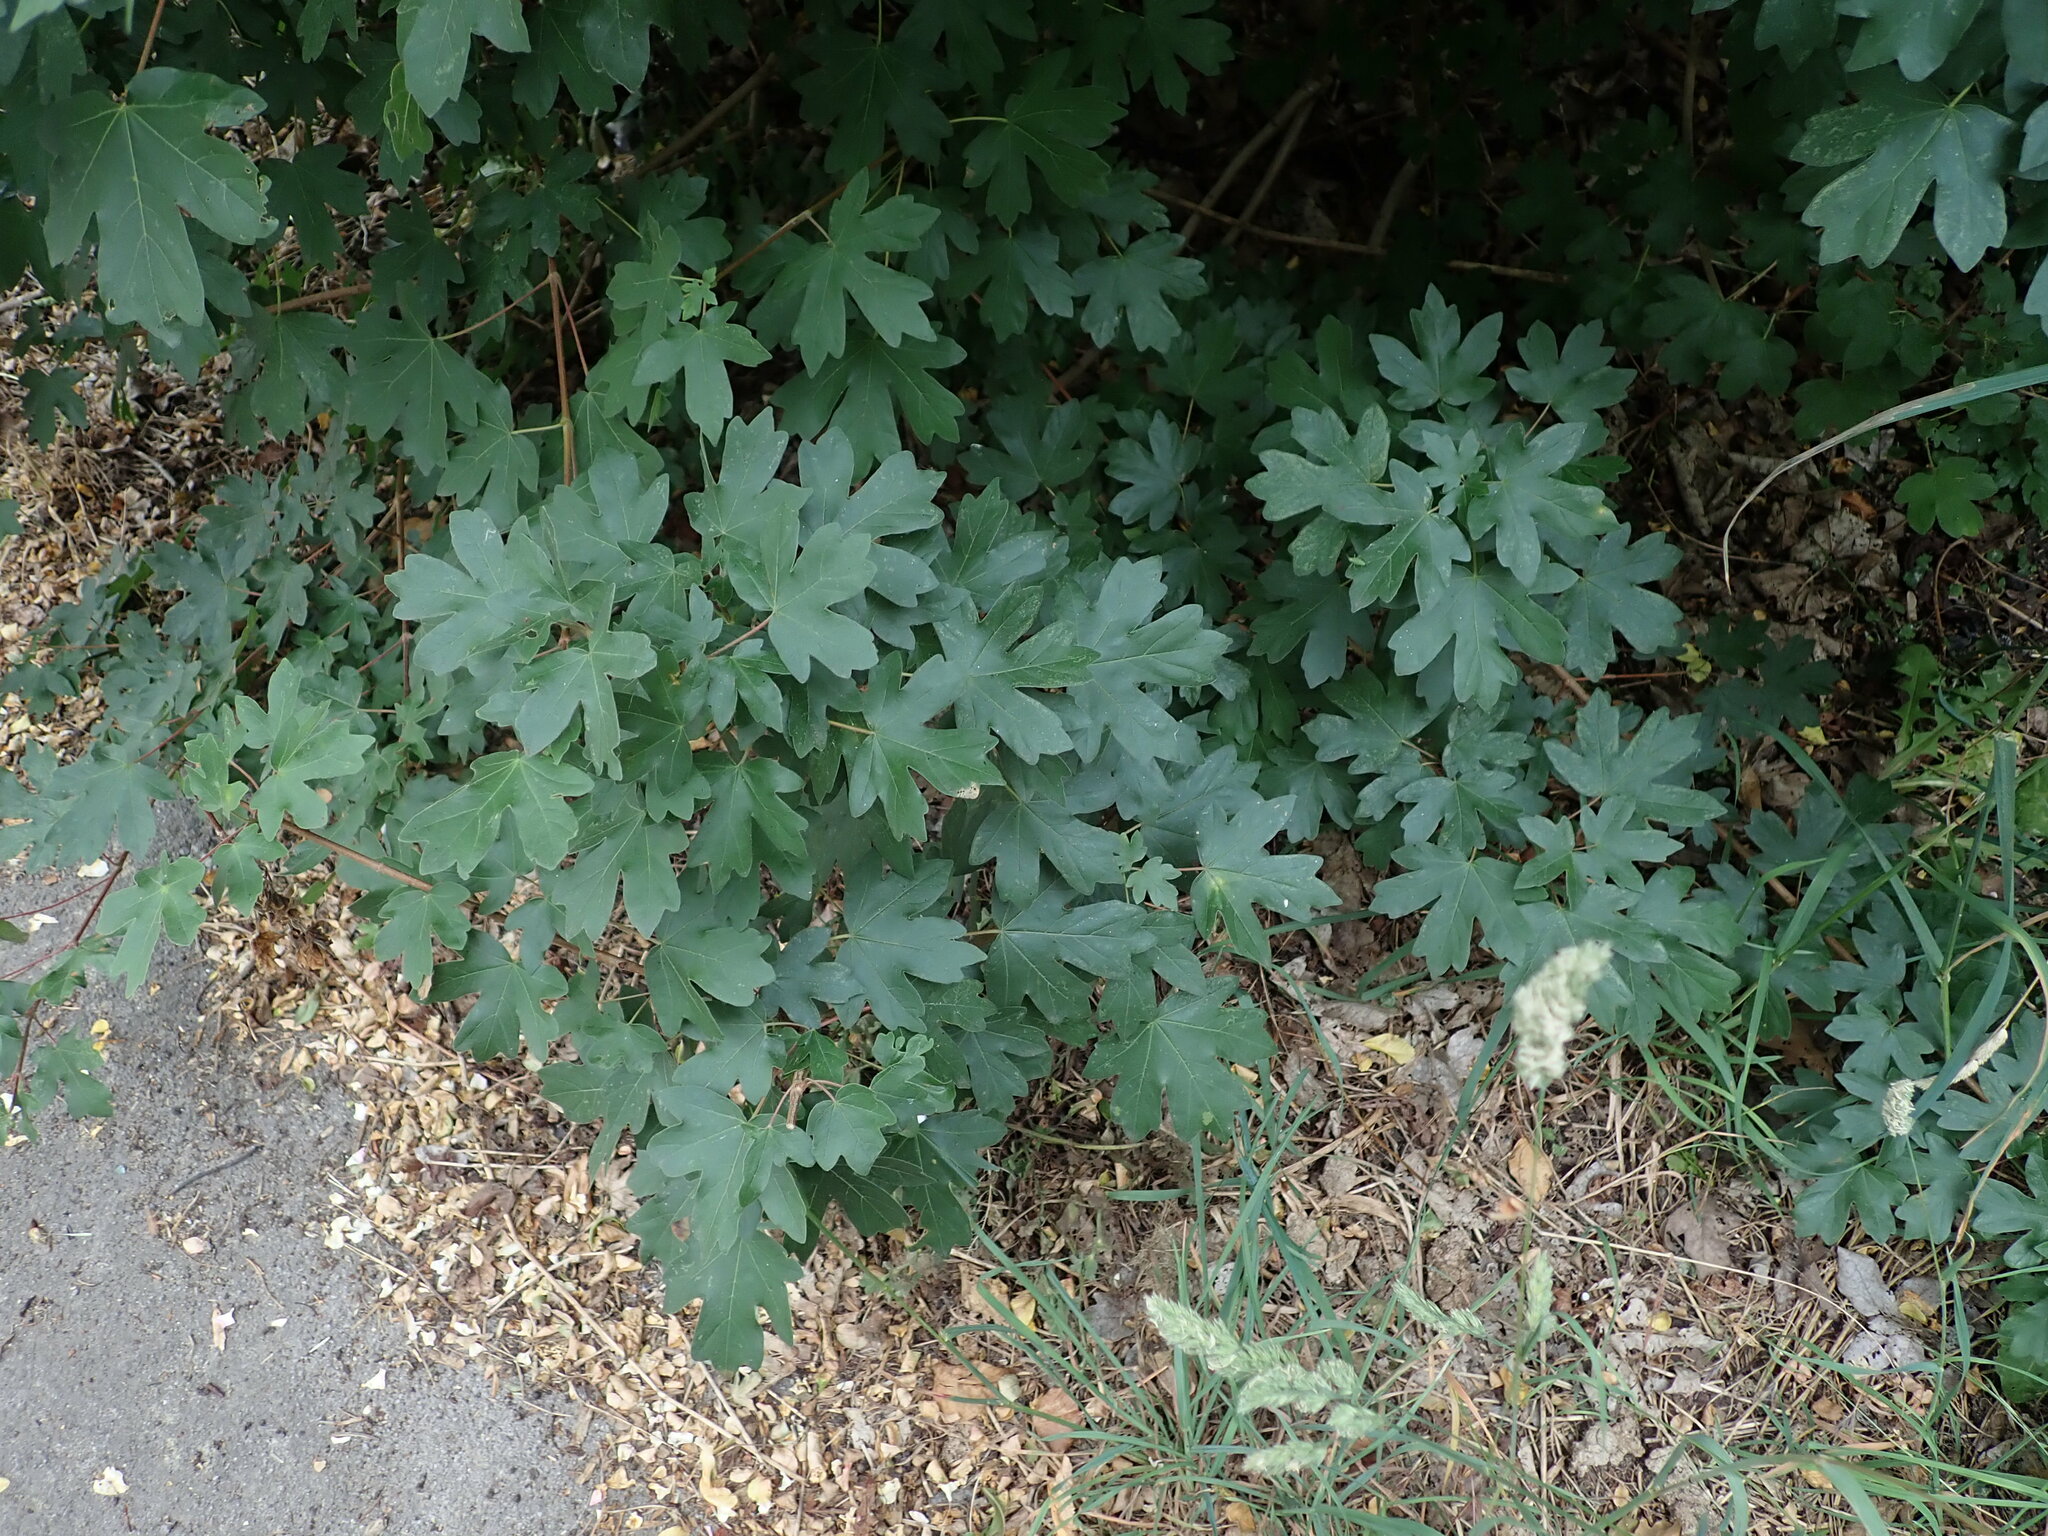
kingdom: Plantae
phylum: Tracheophyta
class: Magnoliopsida
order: Sapindales
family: Sapindaceae
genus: Acer
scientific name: Acer campestre
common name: Field maple
